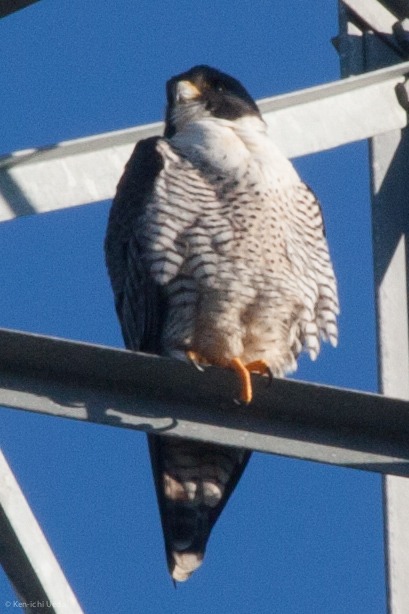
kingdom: Animalia
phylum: Chordata
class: Aves
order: Falconiformes
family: Falconidae
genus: Falco
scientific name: Falco peregrinus
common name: Peregrine falcon
